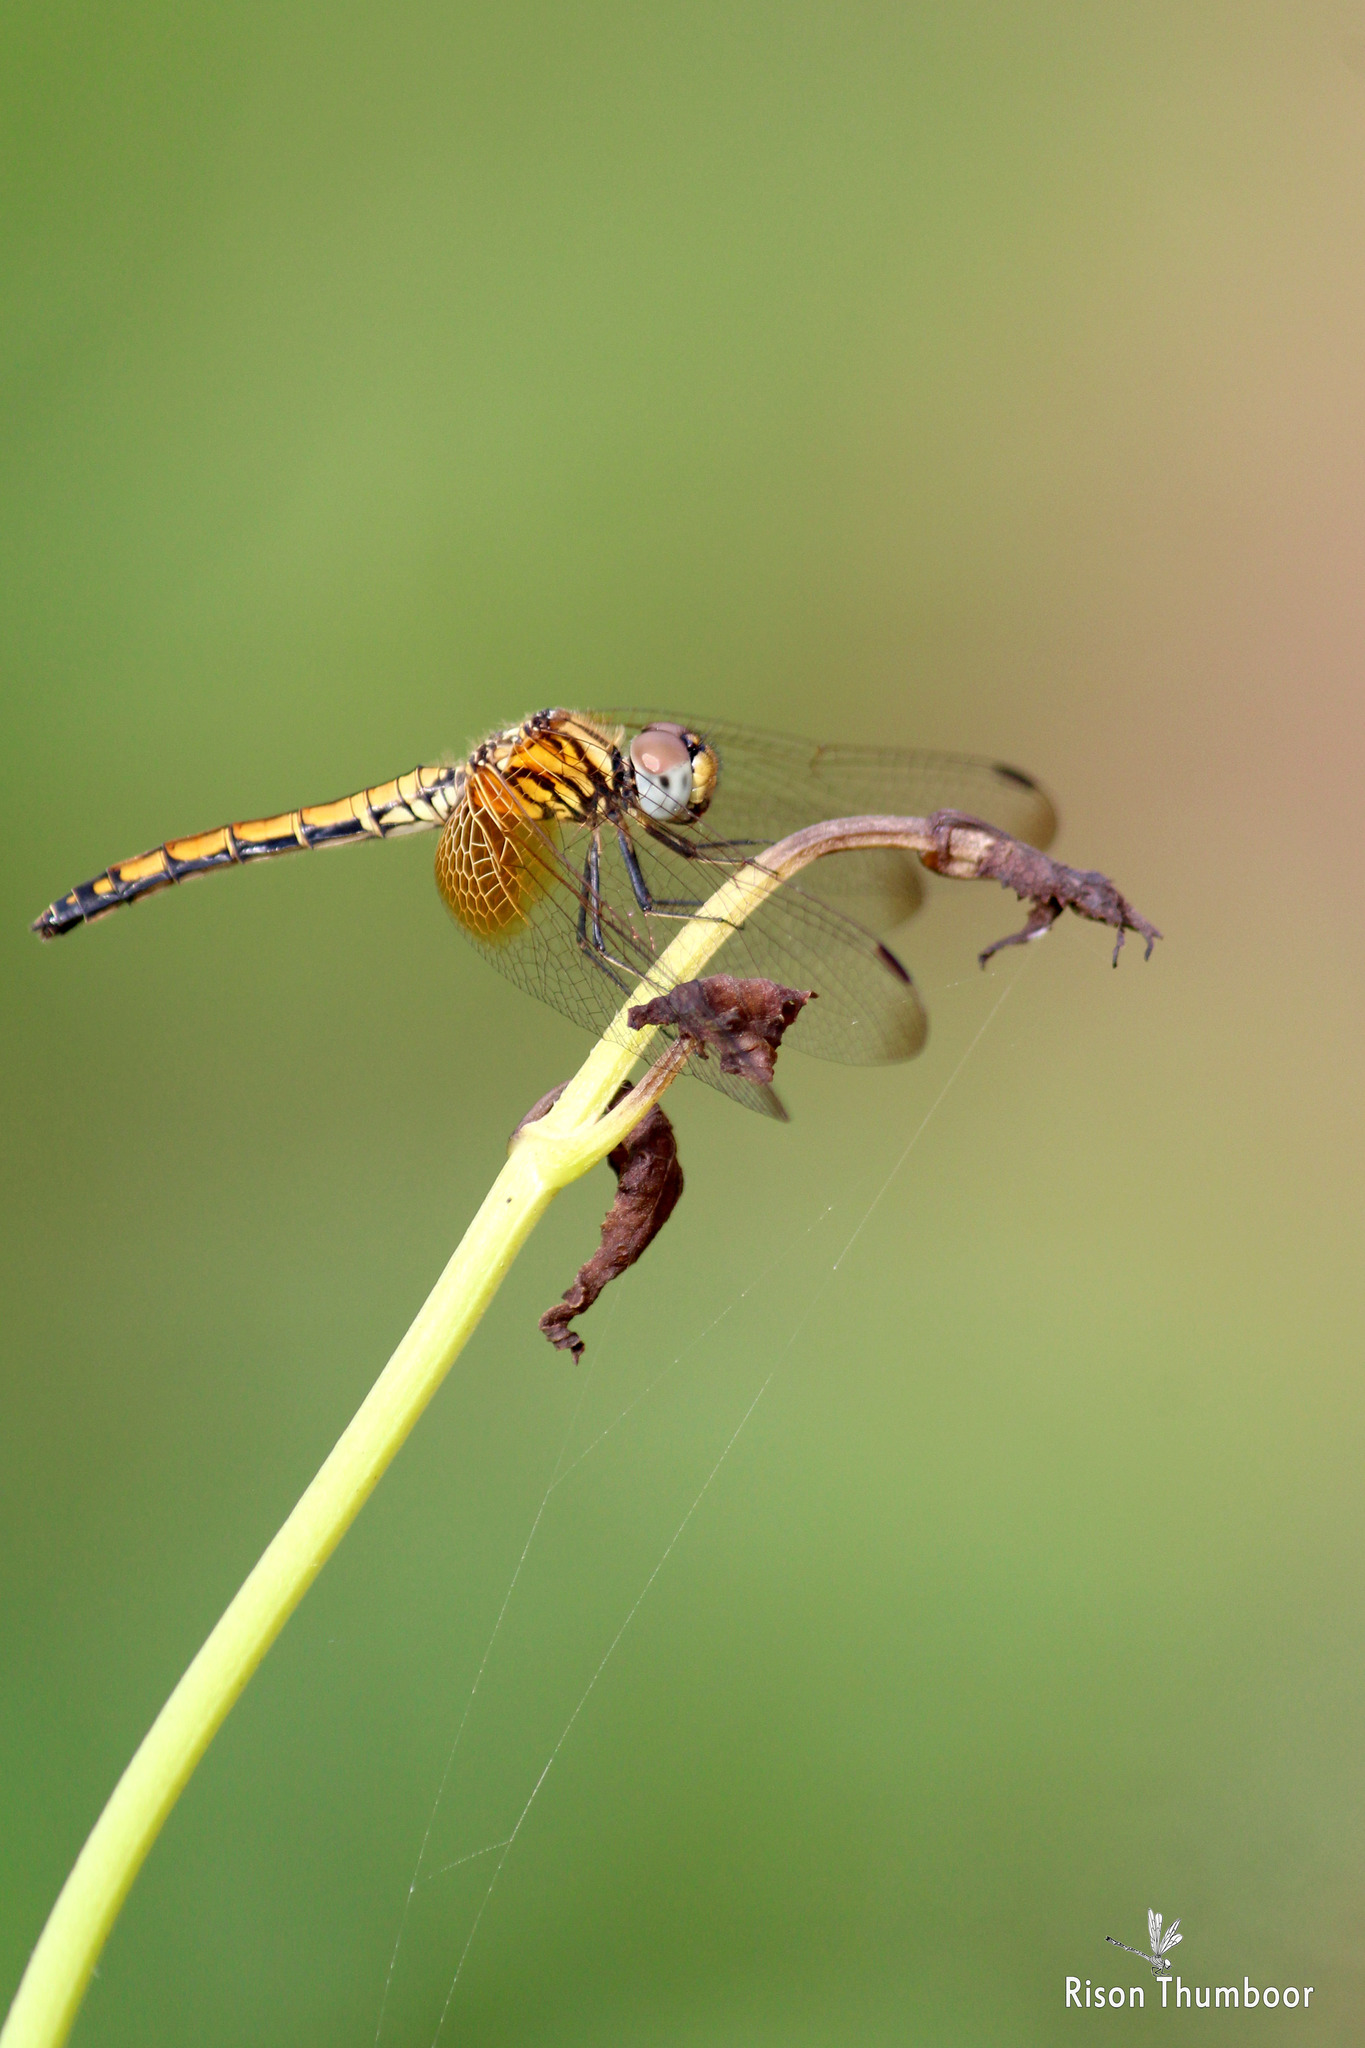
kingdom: Animalia
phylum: Arthropoda
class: Insecta
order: Odonata
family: Libellulidae
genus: Trithemis
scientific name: Trithemis aurora
